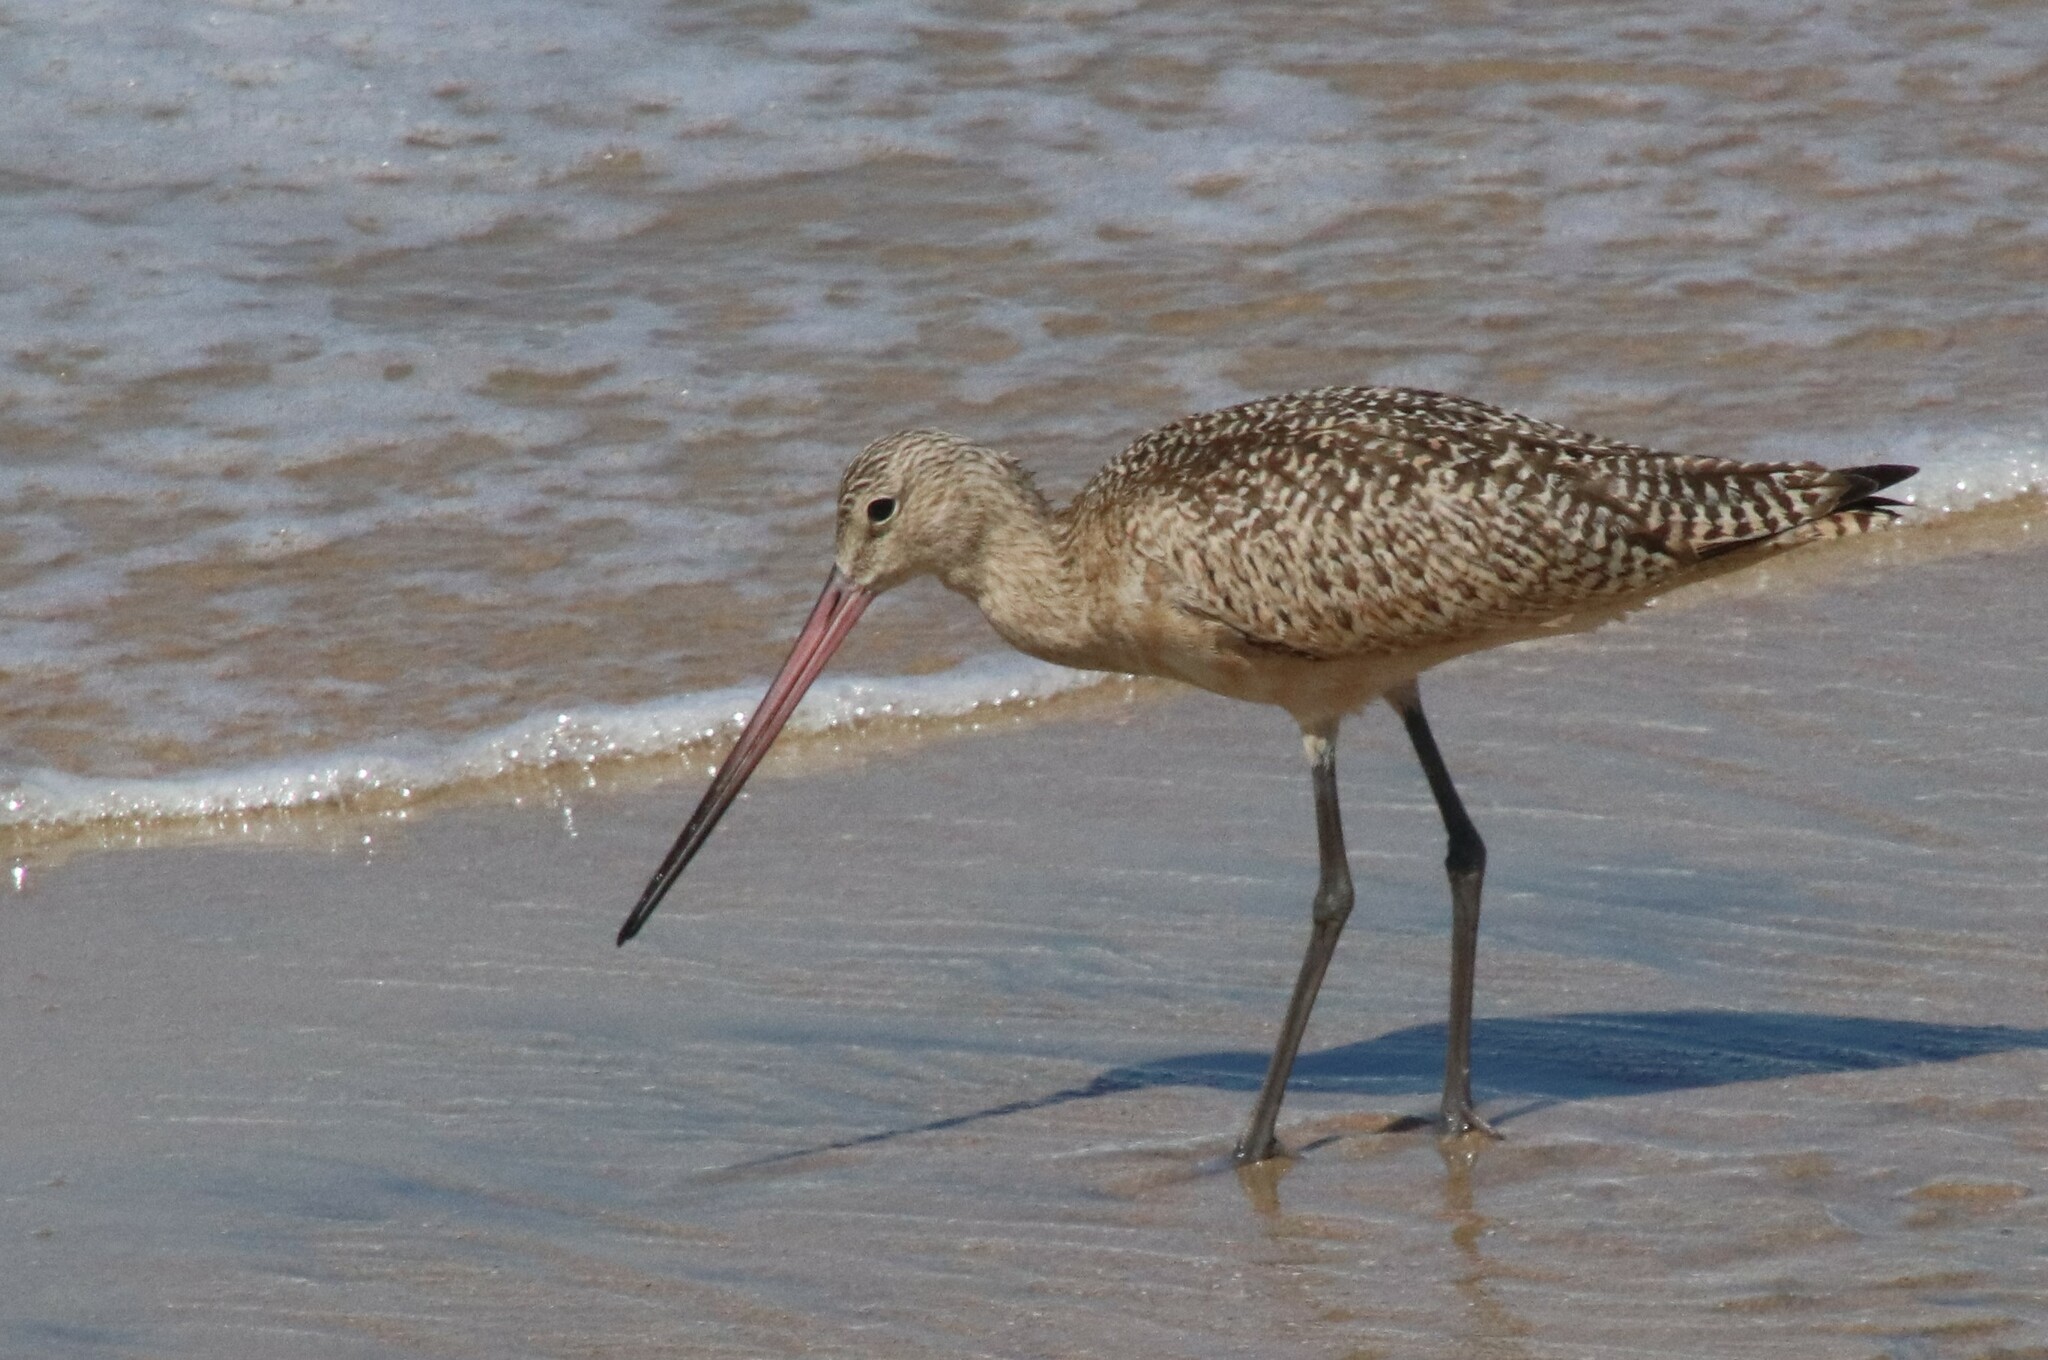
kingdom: Animalia
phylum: Chordata
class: Aves
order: Charadriiformes
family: Scolopacidae
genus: Limosa
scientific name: Limosa fedoa
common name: Marbled godwit
